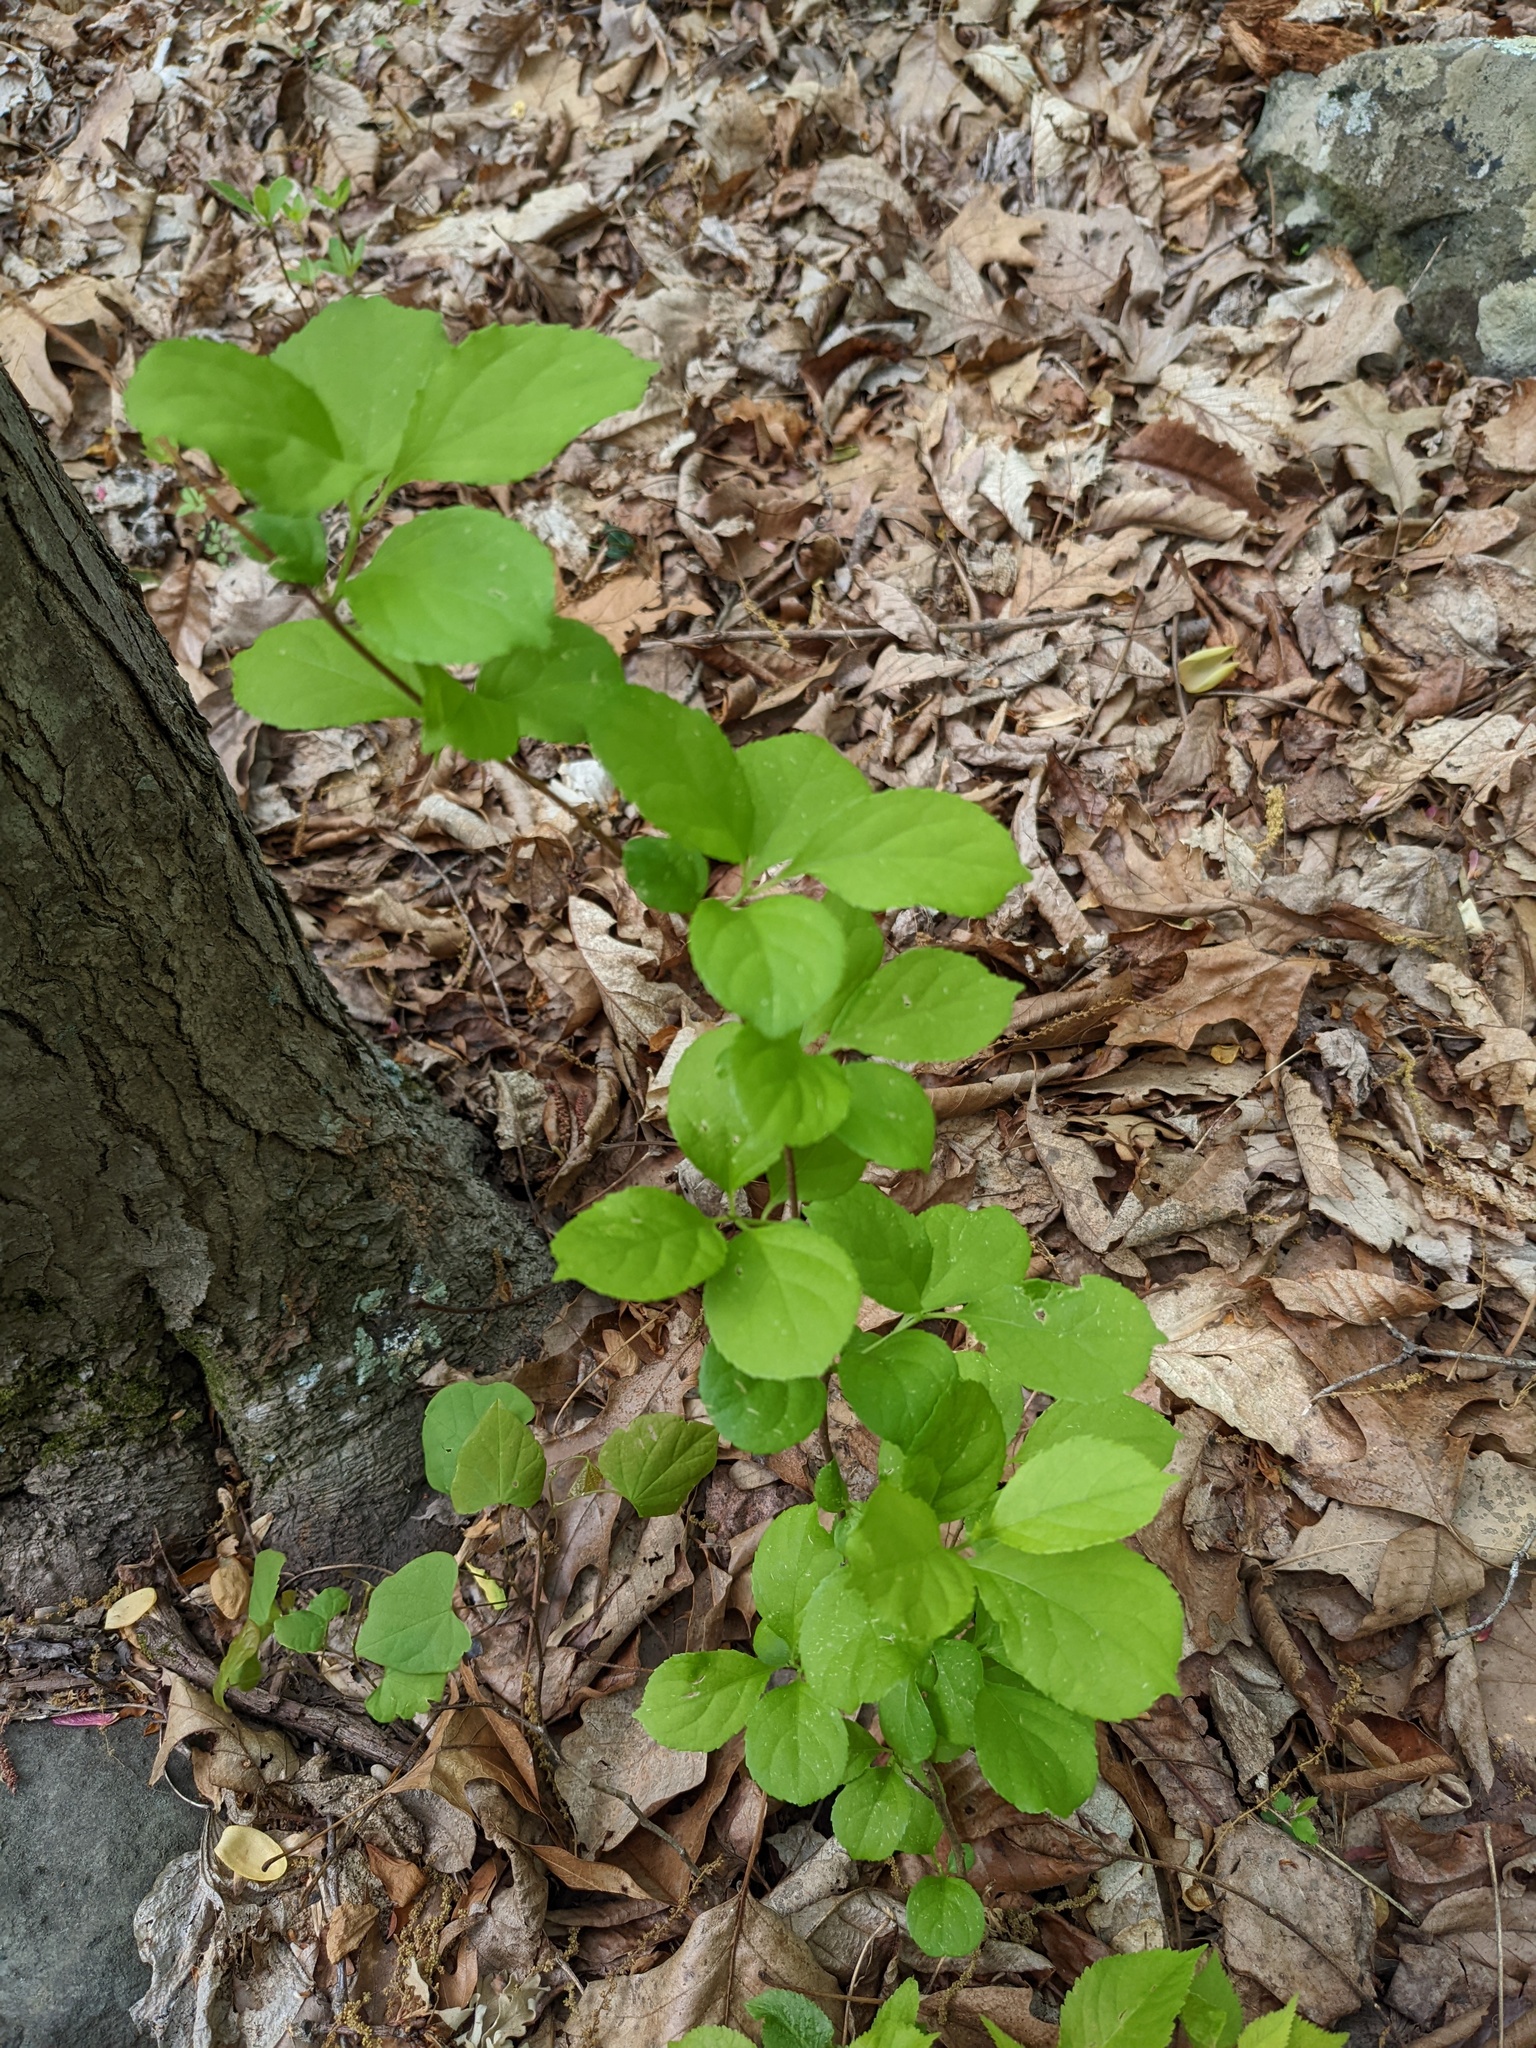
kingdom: Plantae
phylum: Tracheophyta
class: Magnoliopsida
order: Celastrales
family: Celastraceae
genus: Celastrus
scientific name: Celastrus orbiculatus
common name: Oriental bittersweet
